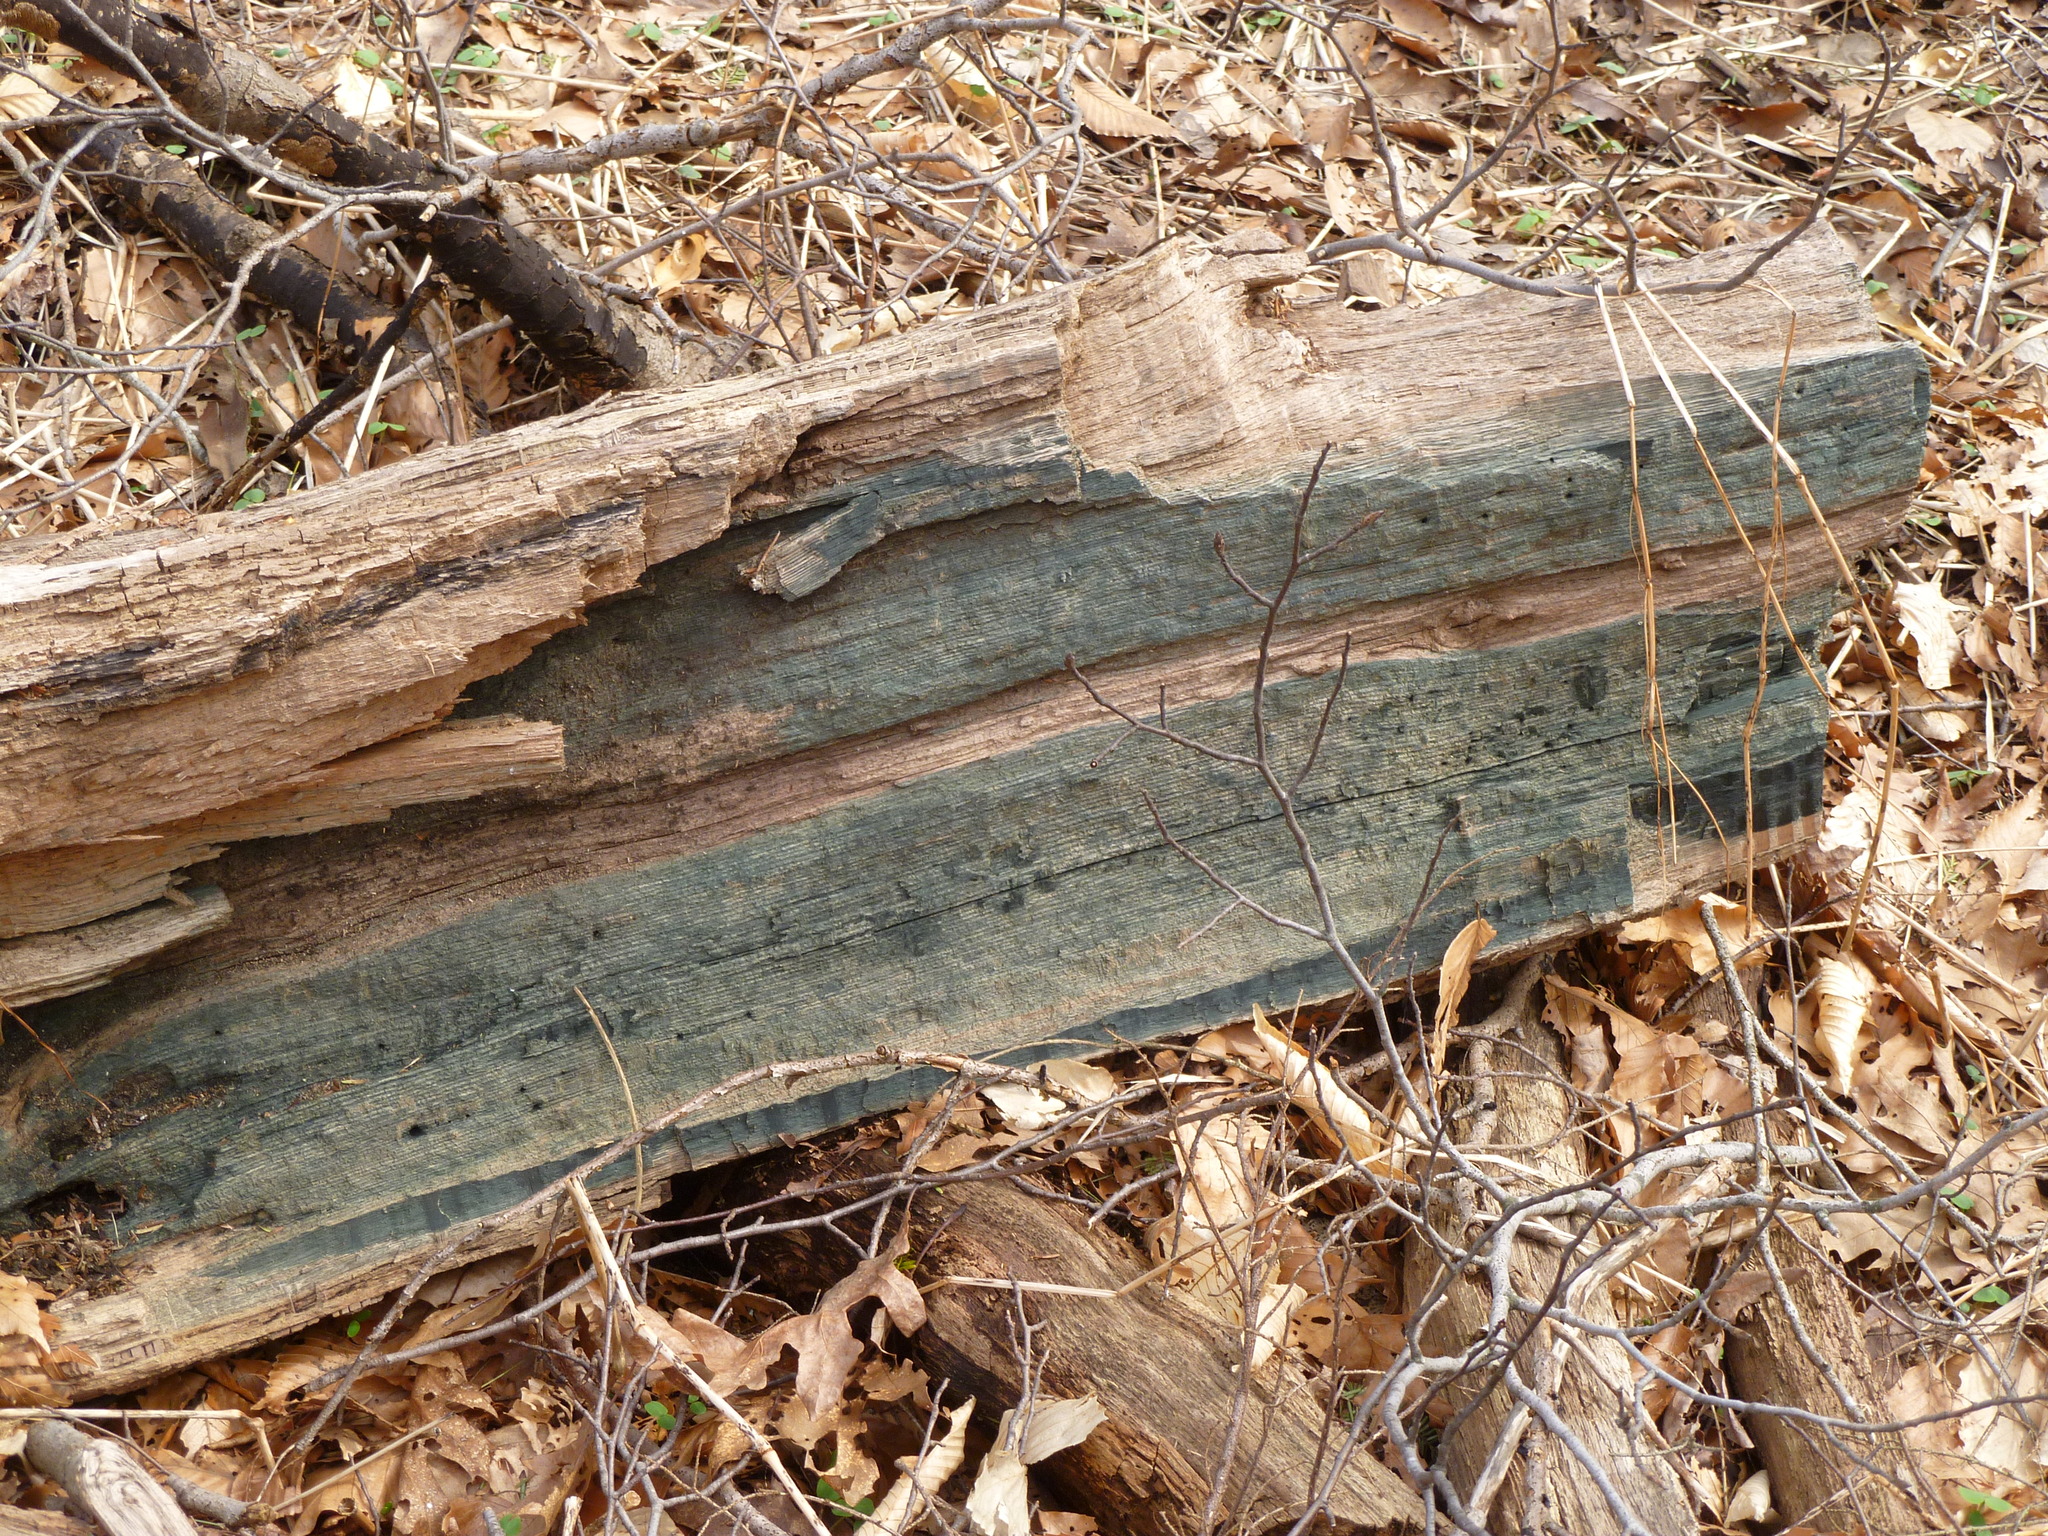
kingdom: Fungi
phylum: Ascomycota
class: Leotiomycetes
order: Helotiales
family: Chlorociboriaceae
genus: Chlorociboria
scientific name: Chlorociboria
